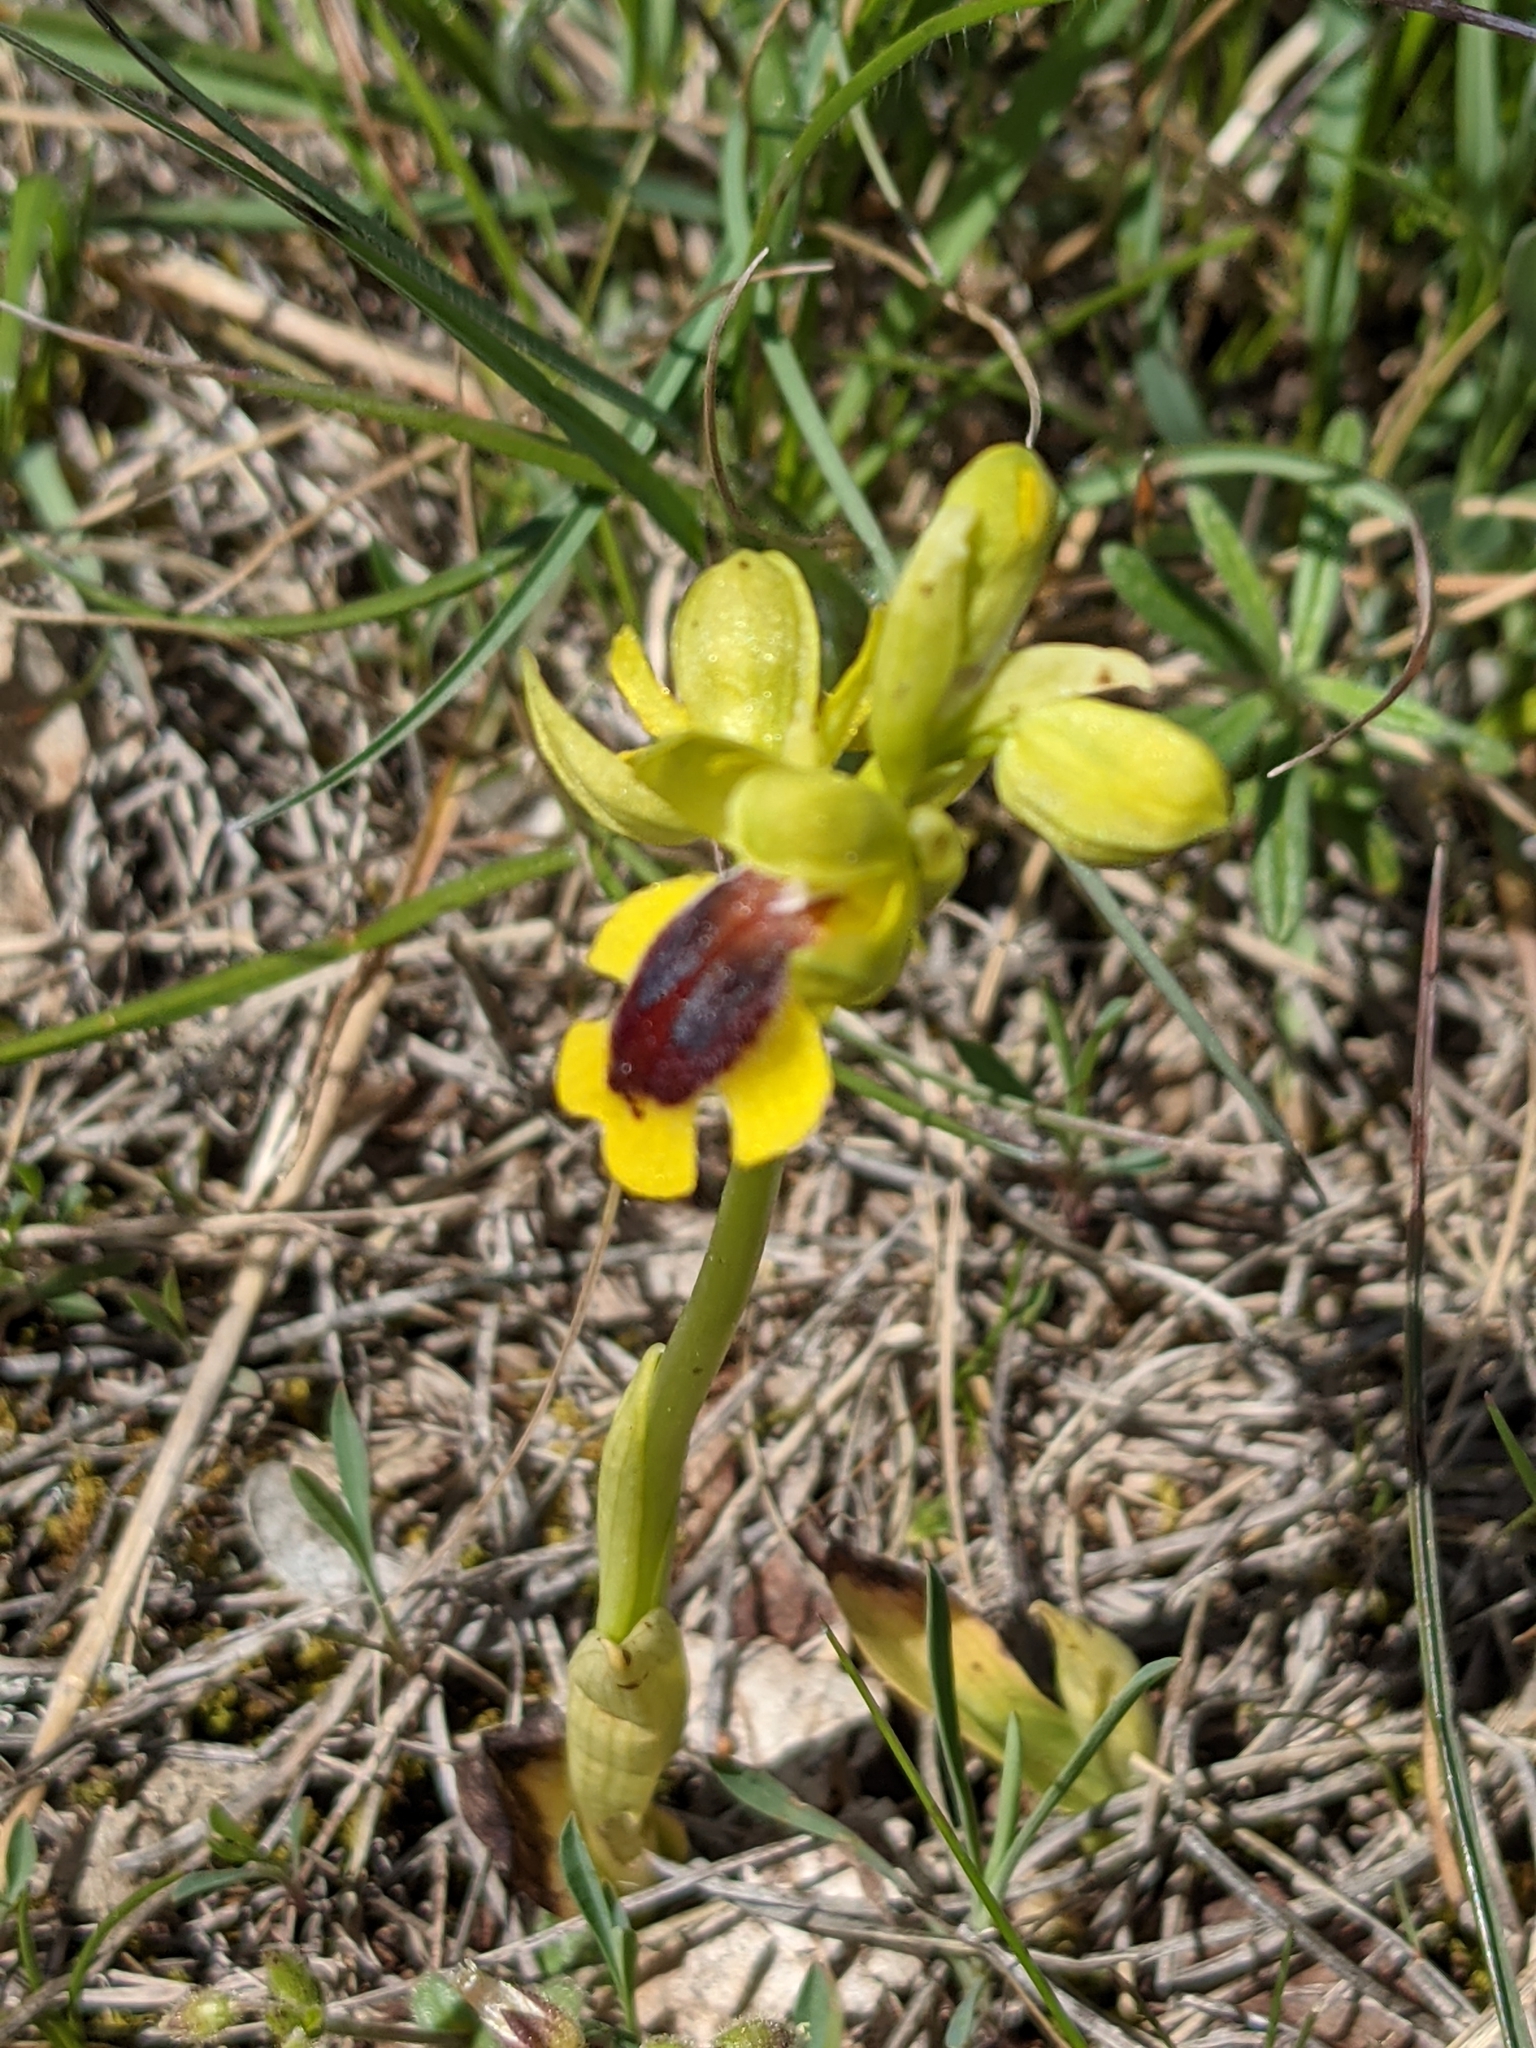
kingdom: Plantae
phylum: Tracheophyta
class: Liliopsida
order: Asparagales
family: Orchidaceae
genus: Ophrys
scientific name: Ophrys lutea
